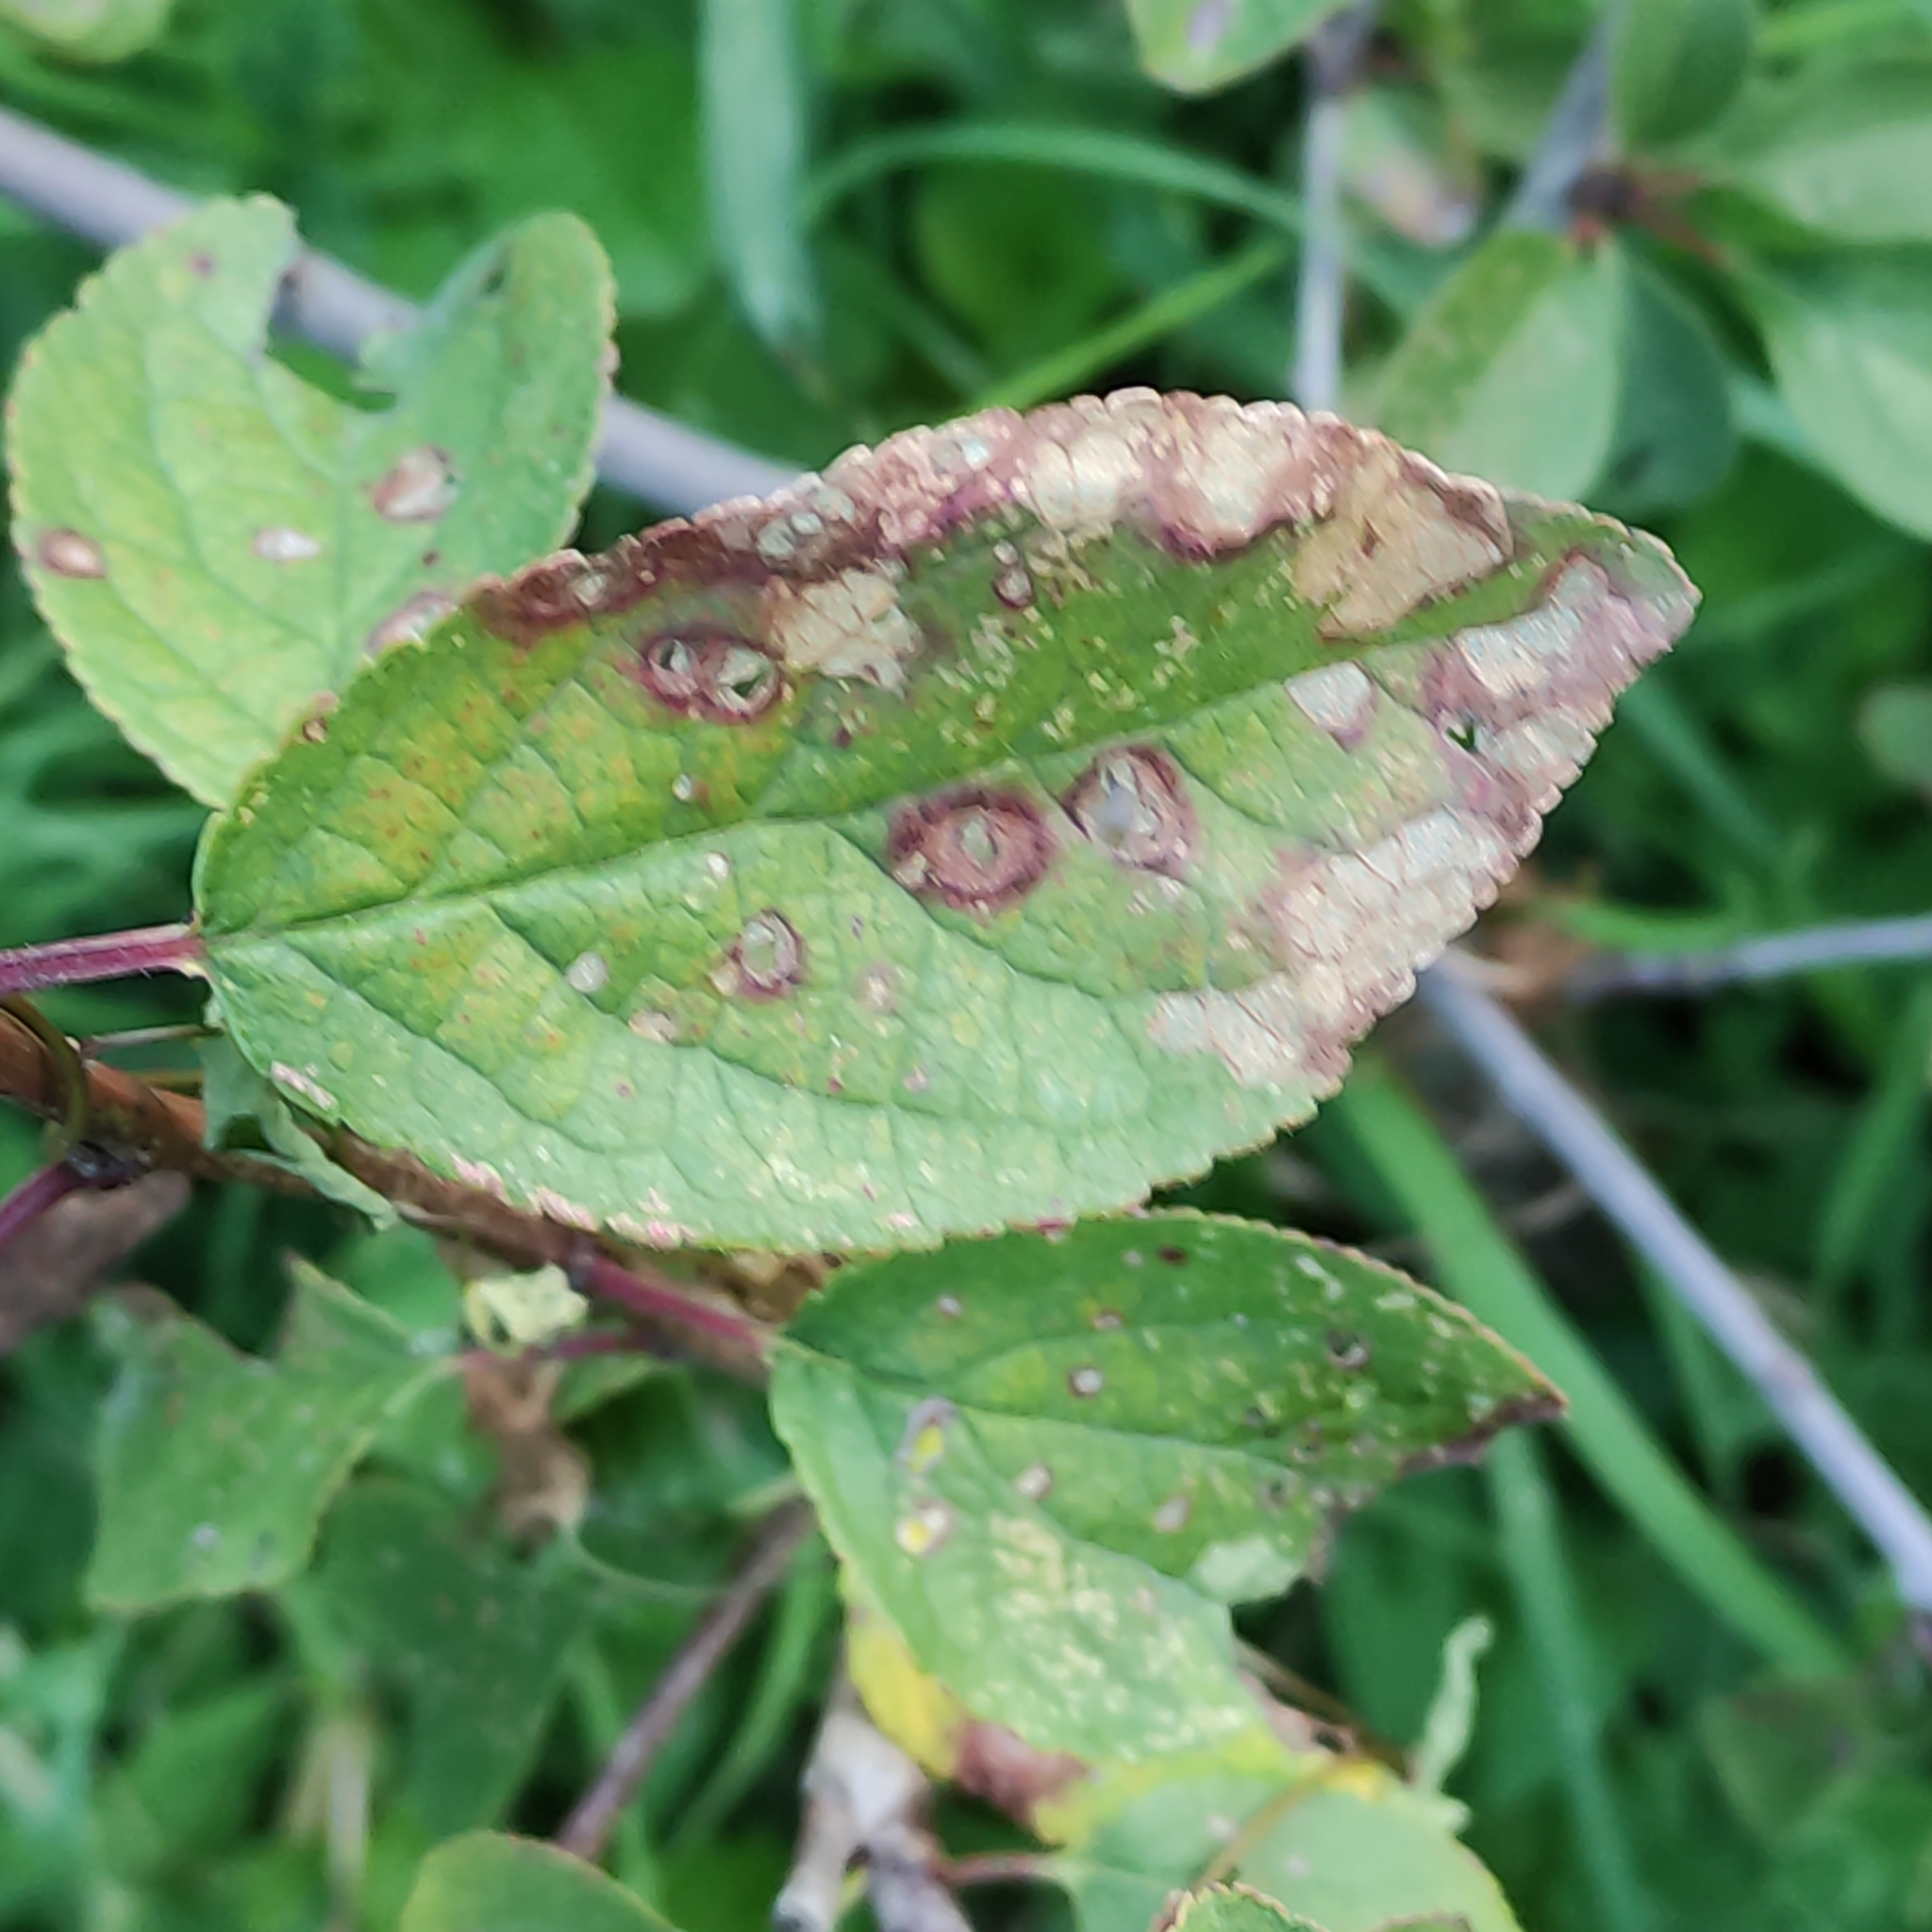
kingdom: Animalia
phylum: Arthropoda
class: Insecta
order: Hymenoptera
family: Tenthredinidae
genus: Caliroa
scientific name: Caliroa cerasi
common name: Pear sawfly
